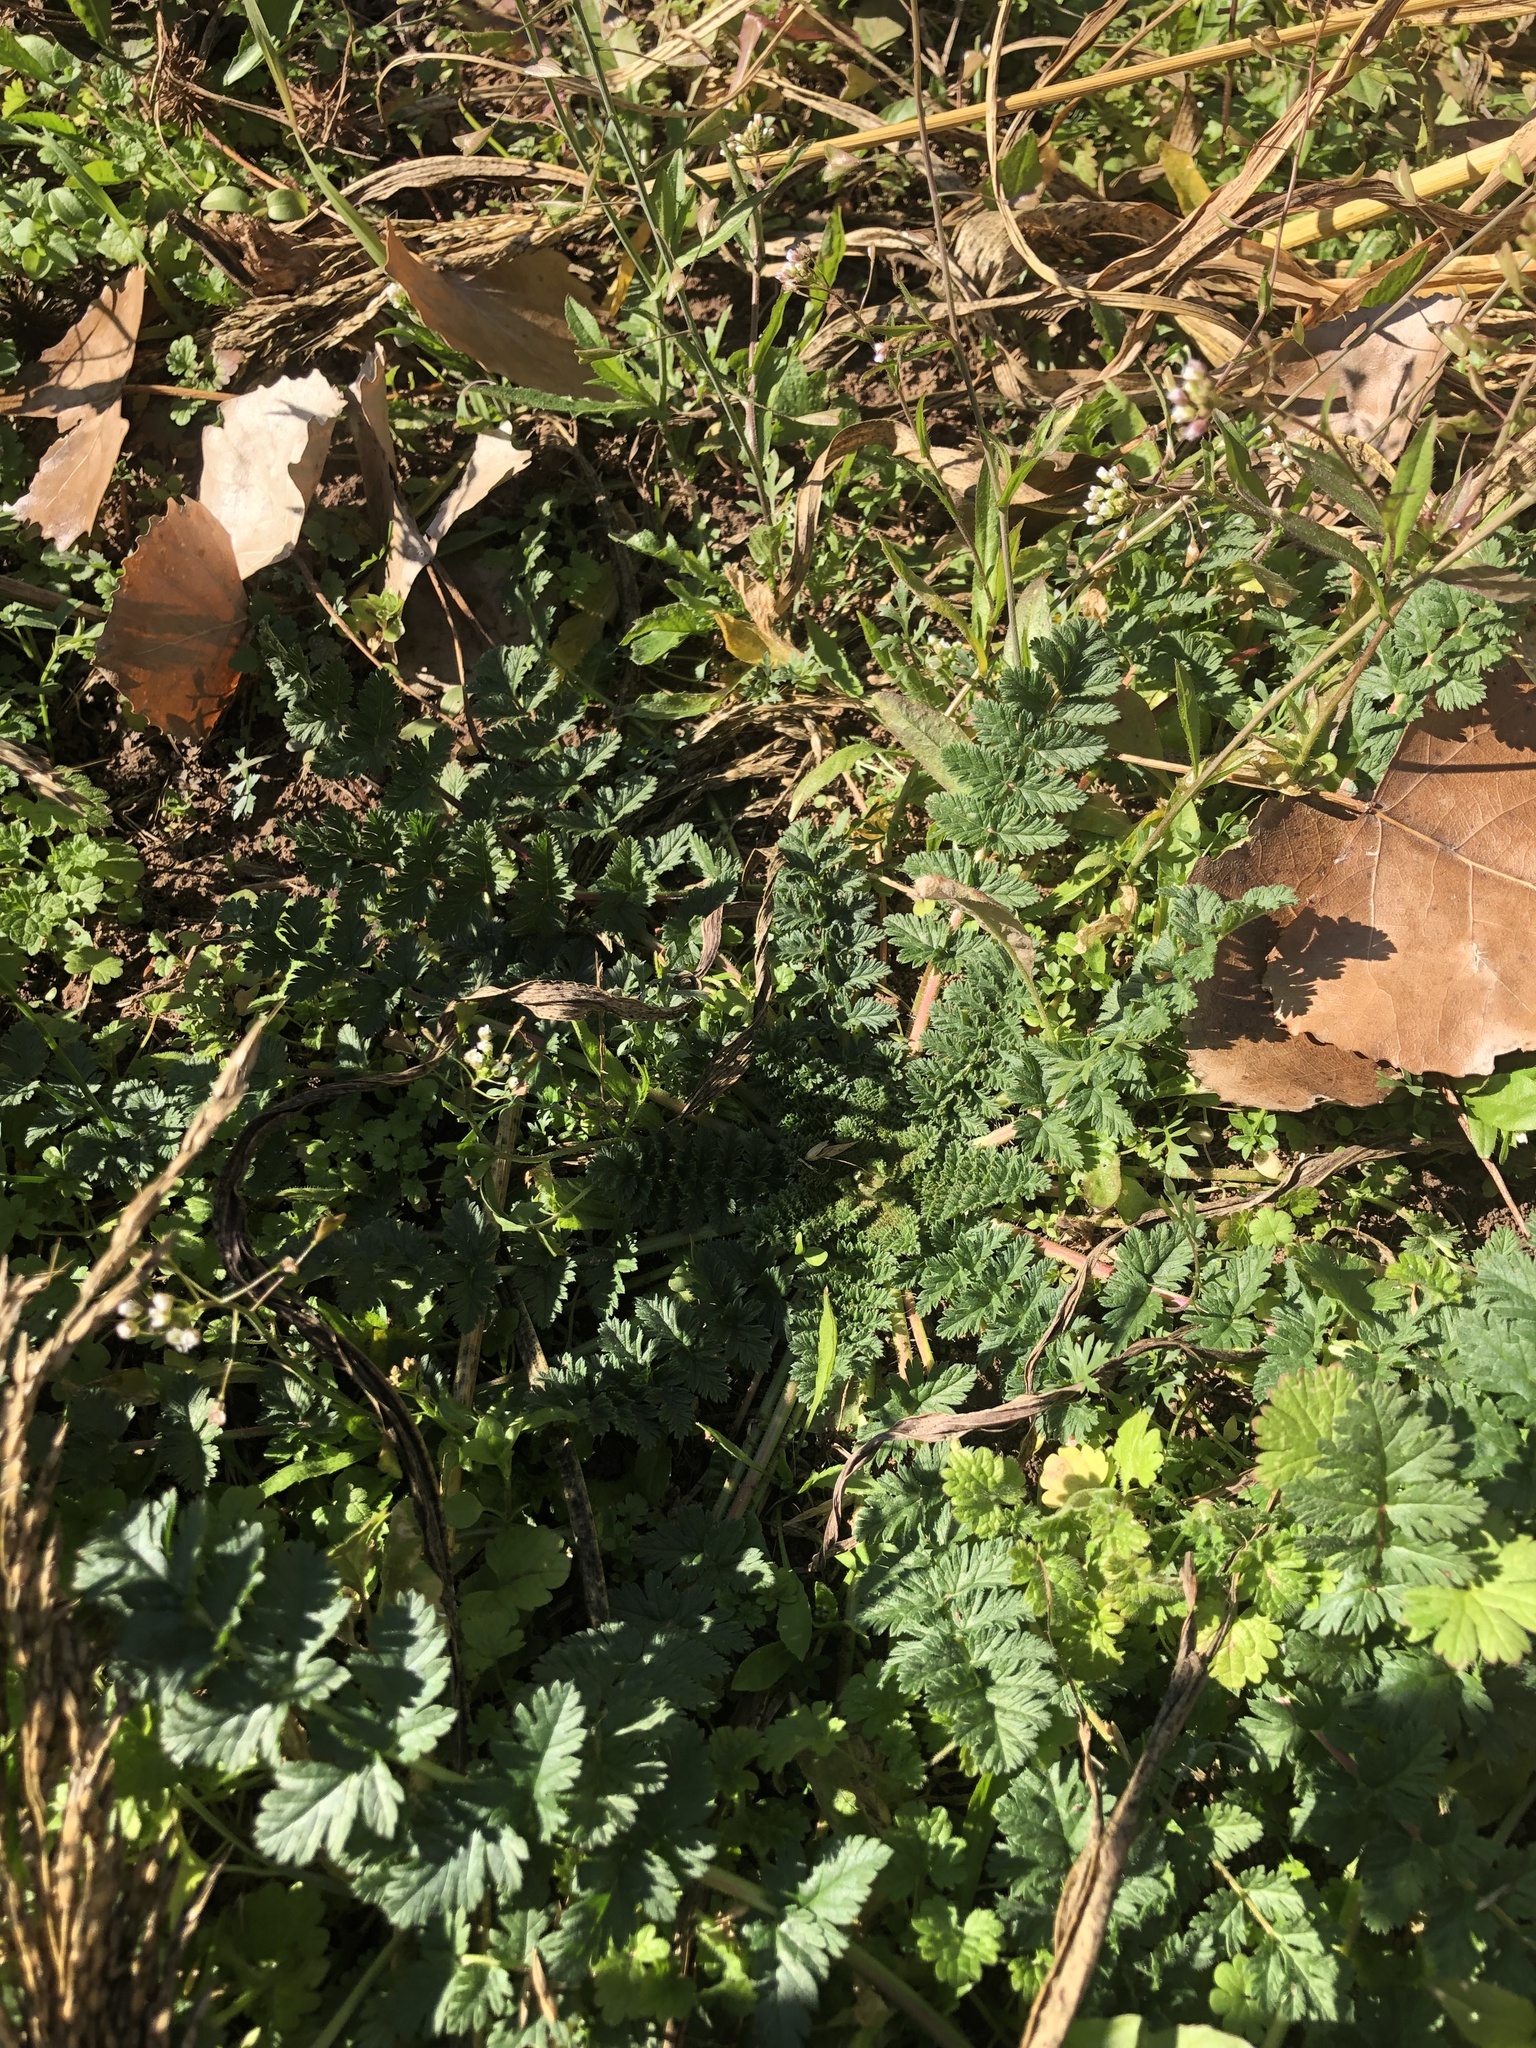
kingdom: Plantae
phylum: Tracheophyta
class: Magnoliopsida
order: Geraniales
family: Geraniaceae
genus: Erodium
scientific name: Erodium cicutarium
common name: Common stork's-bill
